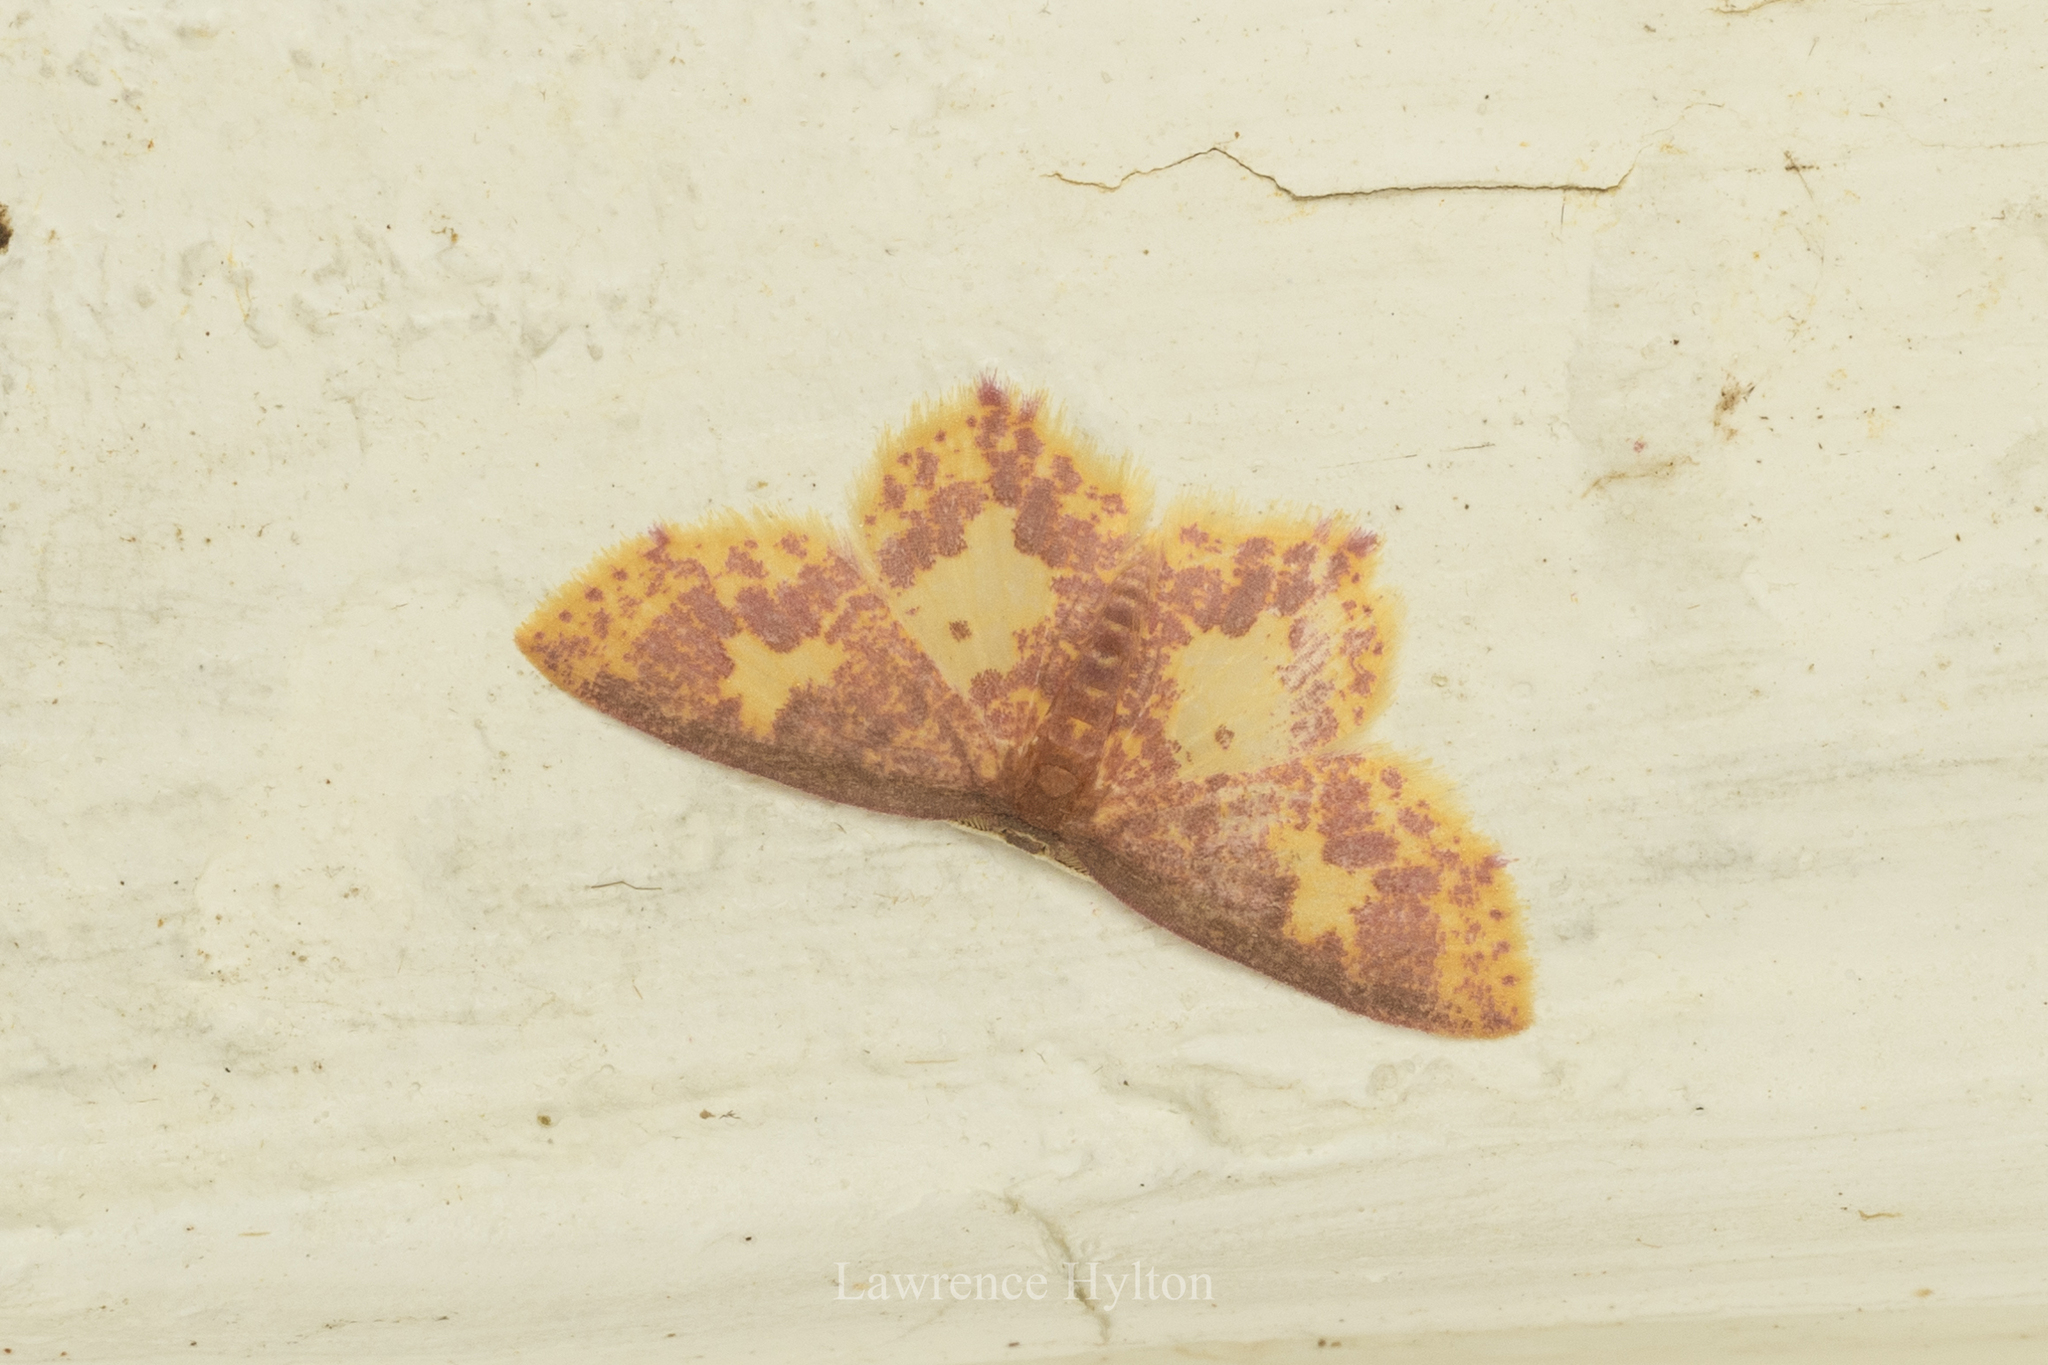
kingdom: Animalia
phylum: Arthropoda
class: Insecta
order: Lepidoptera
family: Geometridae
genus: Chrysocraspeda
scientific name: Chrysocraspeda faganaria
